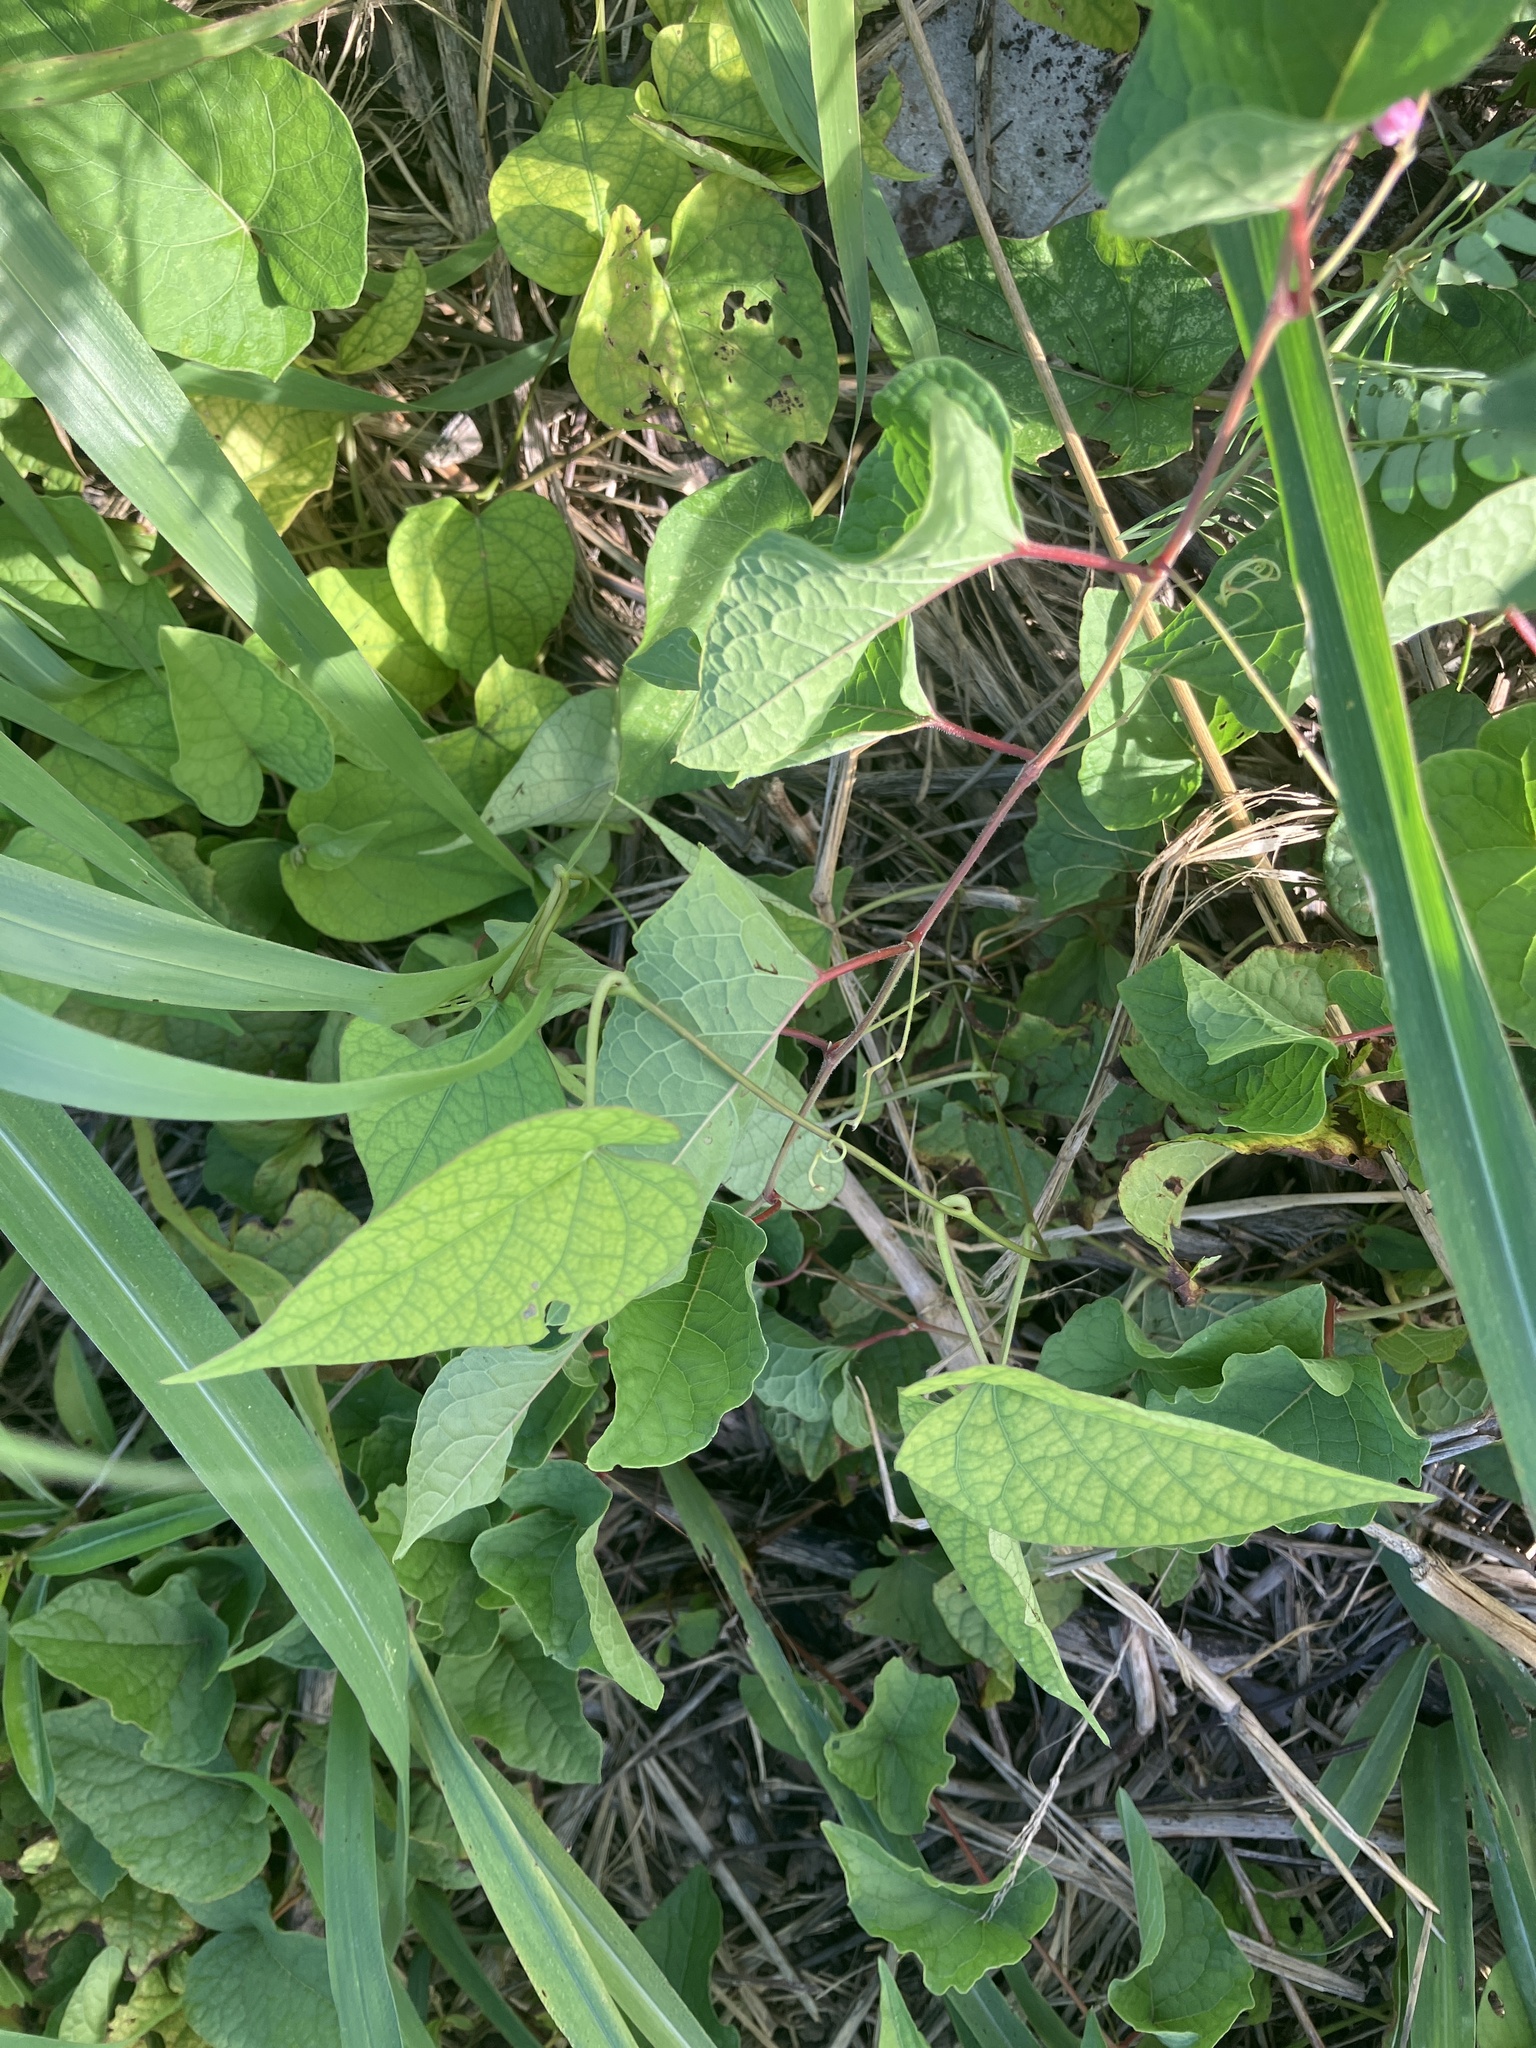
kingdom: Plantae
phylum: Tracheophyta
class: Magnoliopsida
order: Caryophyllales
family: Polygonaceae
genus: Antigonon
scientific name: Antigonon leptopus
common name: Coral vine
